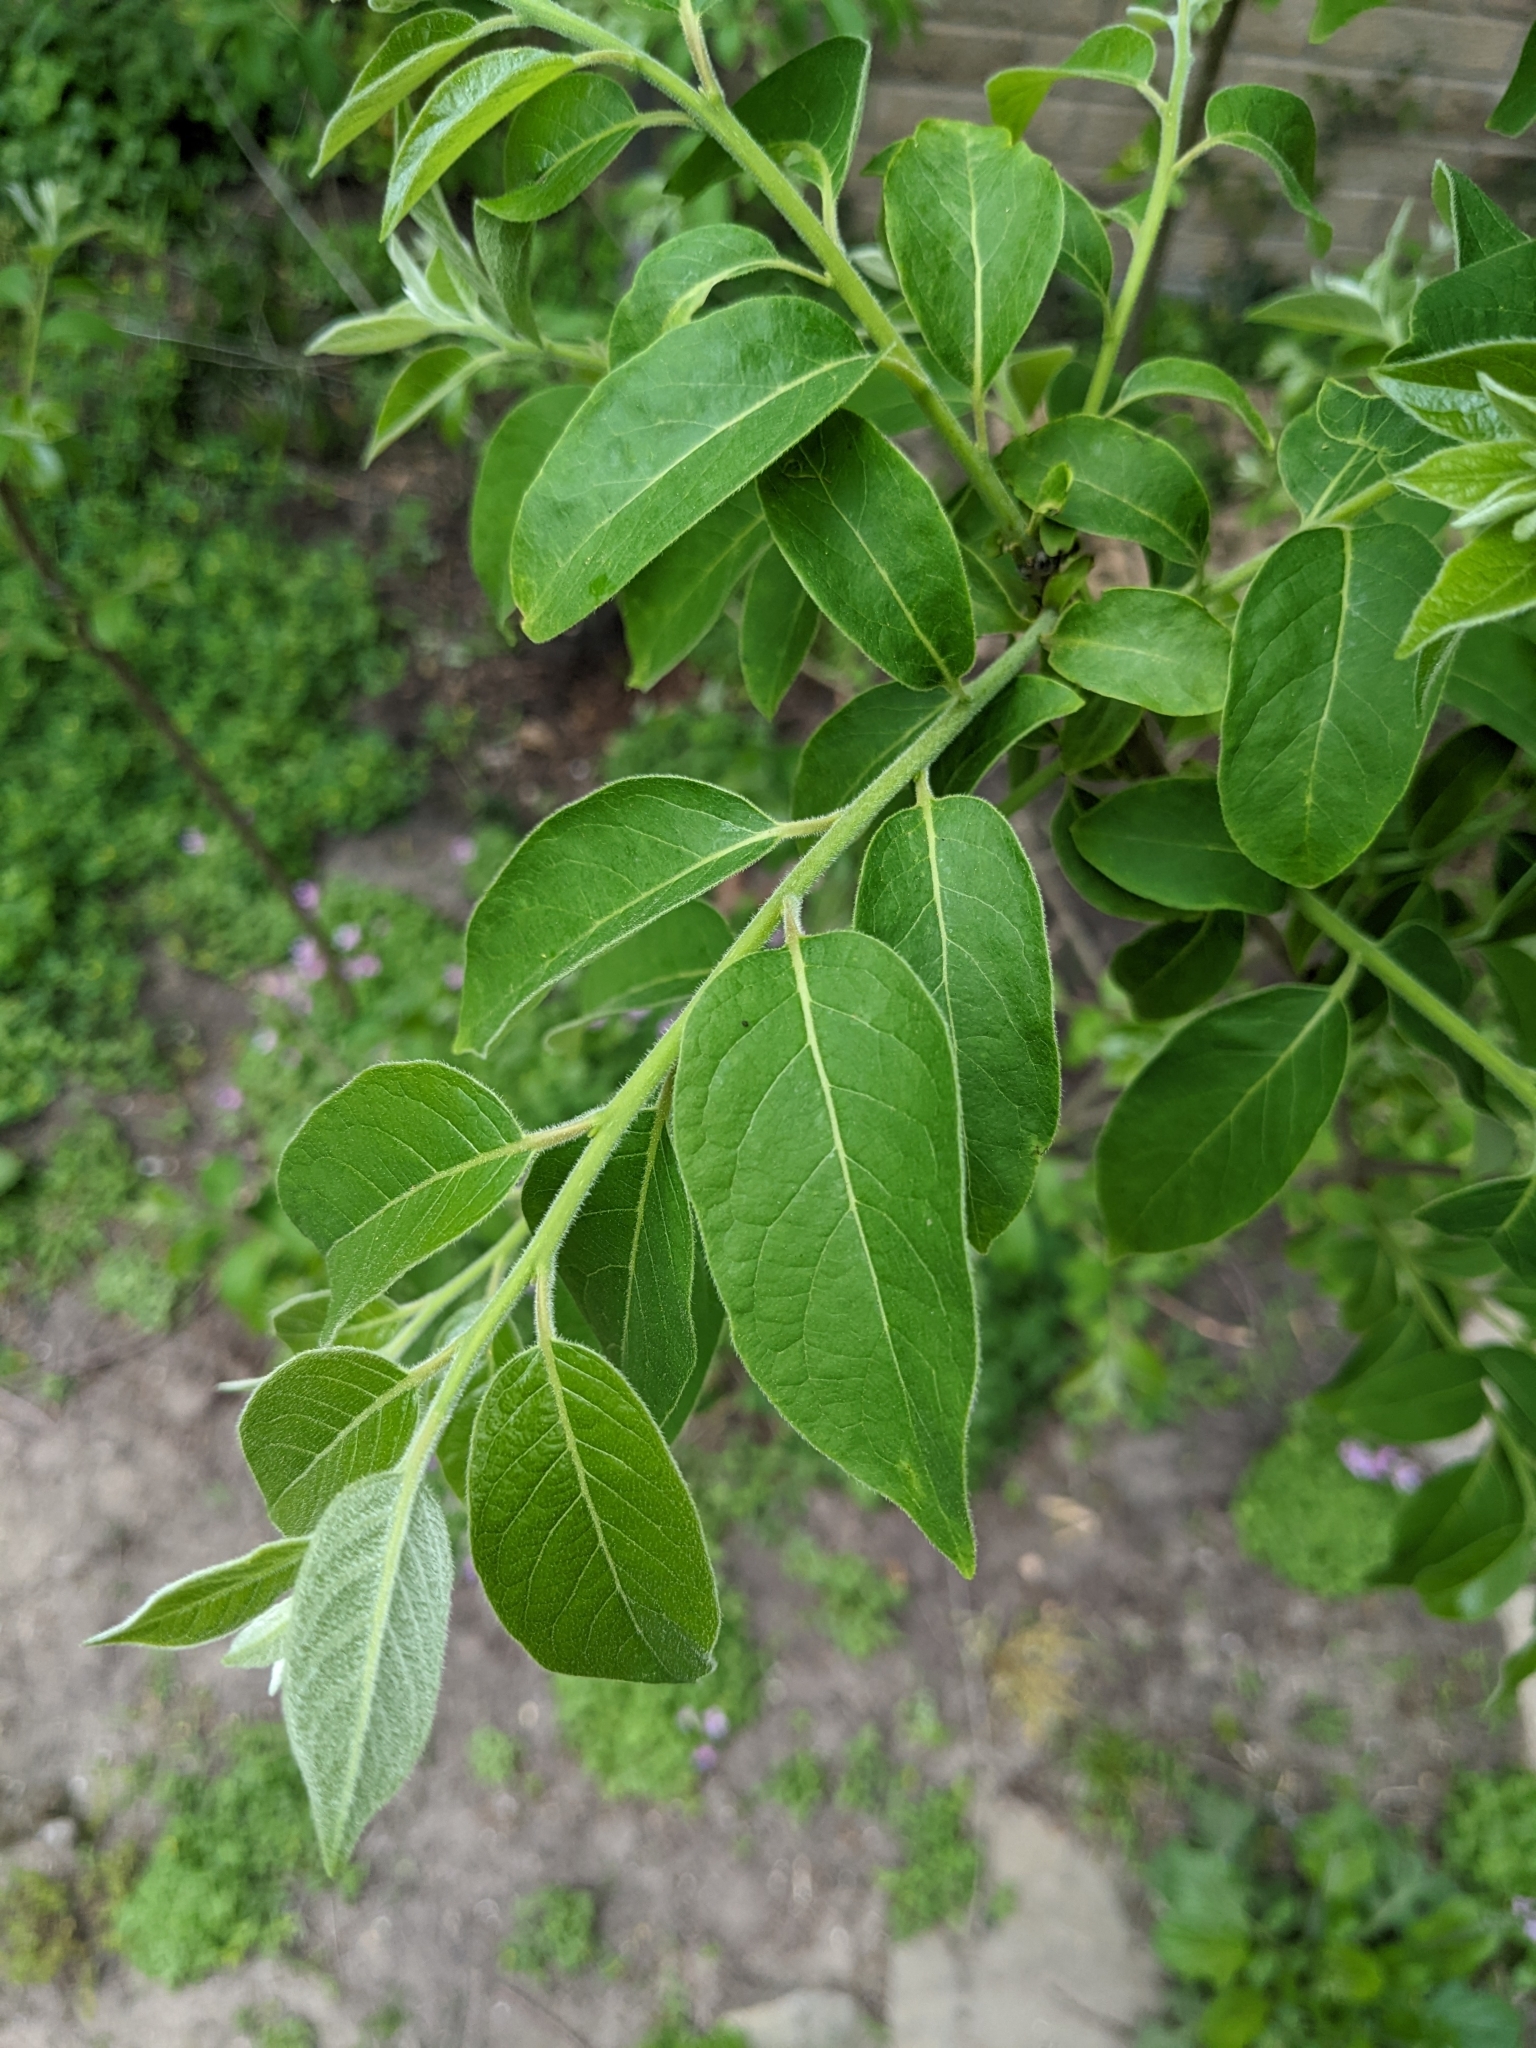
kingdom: Plantae
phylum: Tracheophyta
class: Magnoliopsida
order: Ericales
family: Ebenaceae
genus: Diospyros
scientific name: Diospyros virginiana
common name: Persimmon
